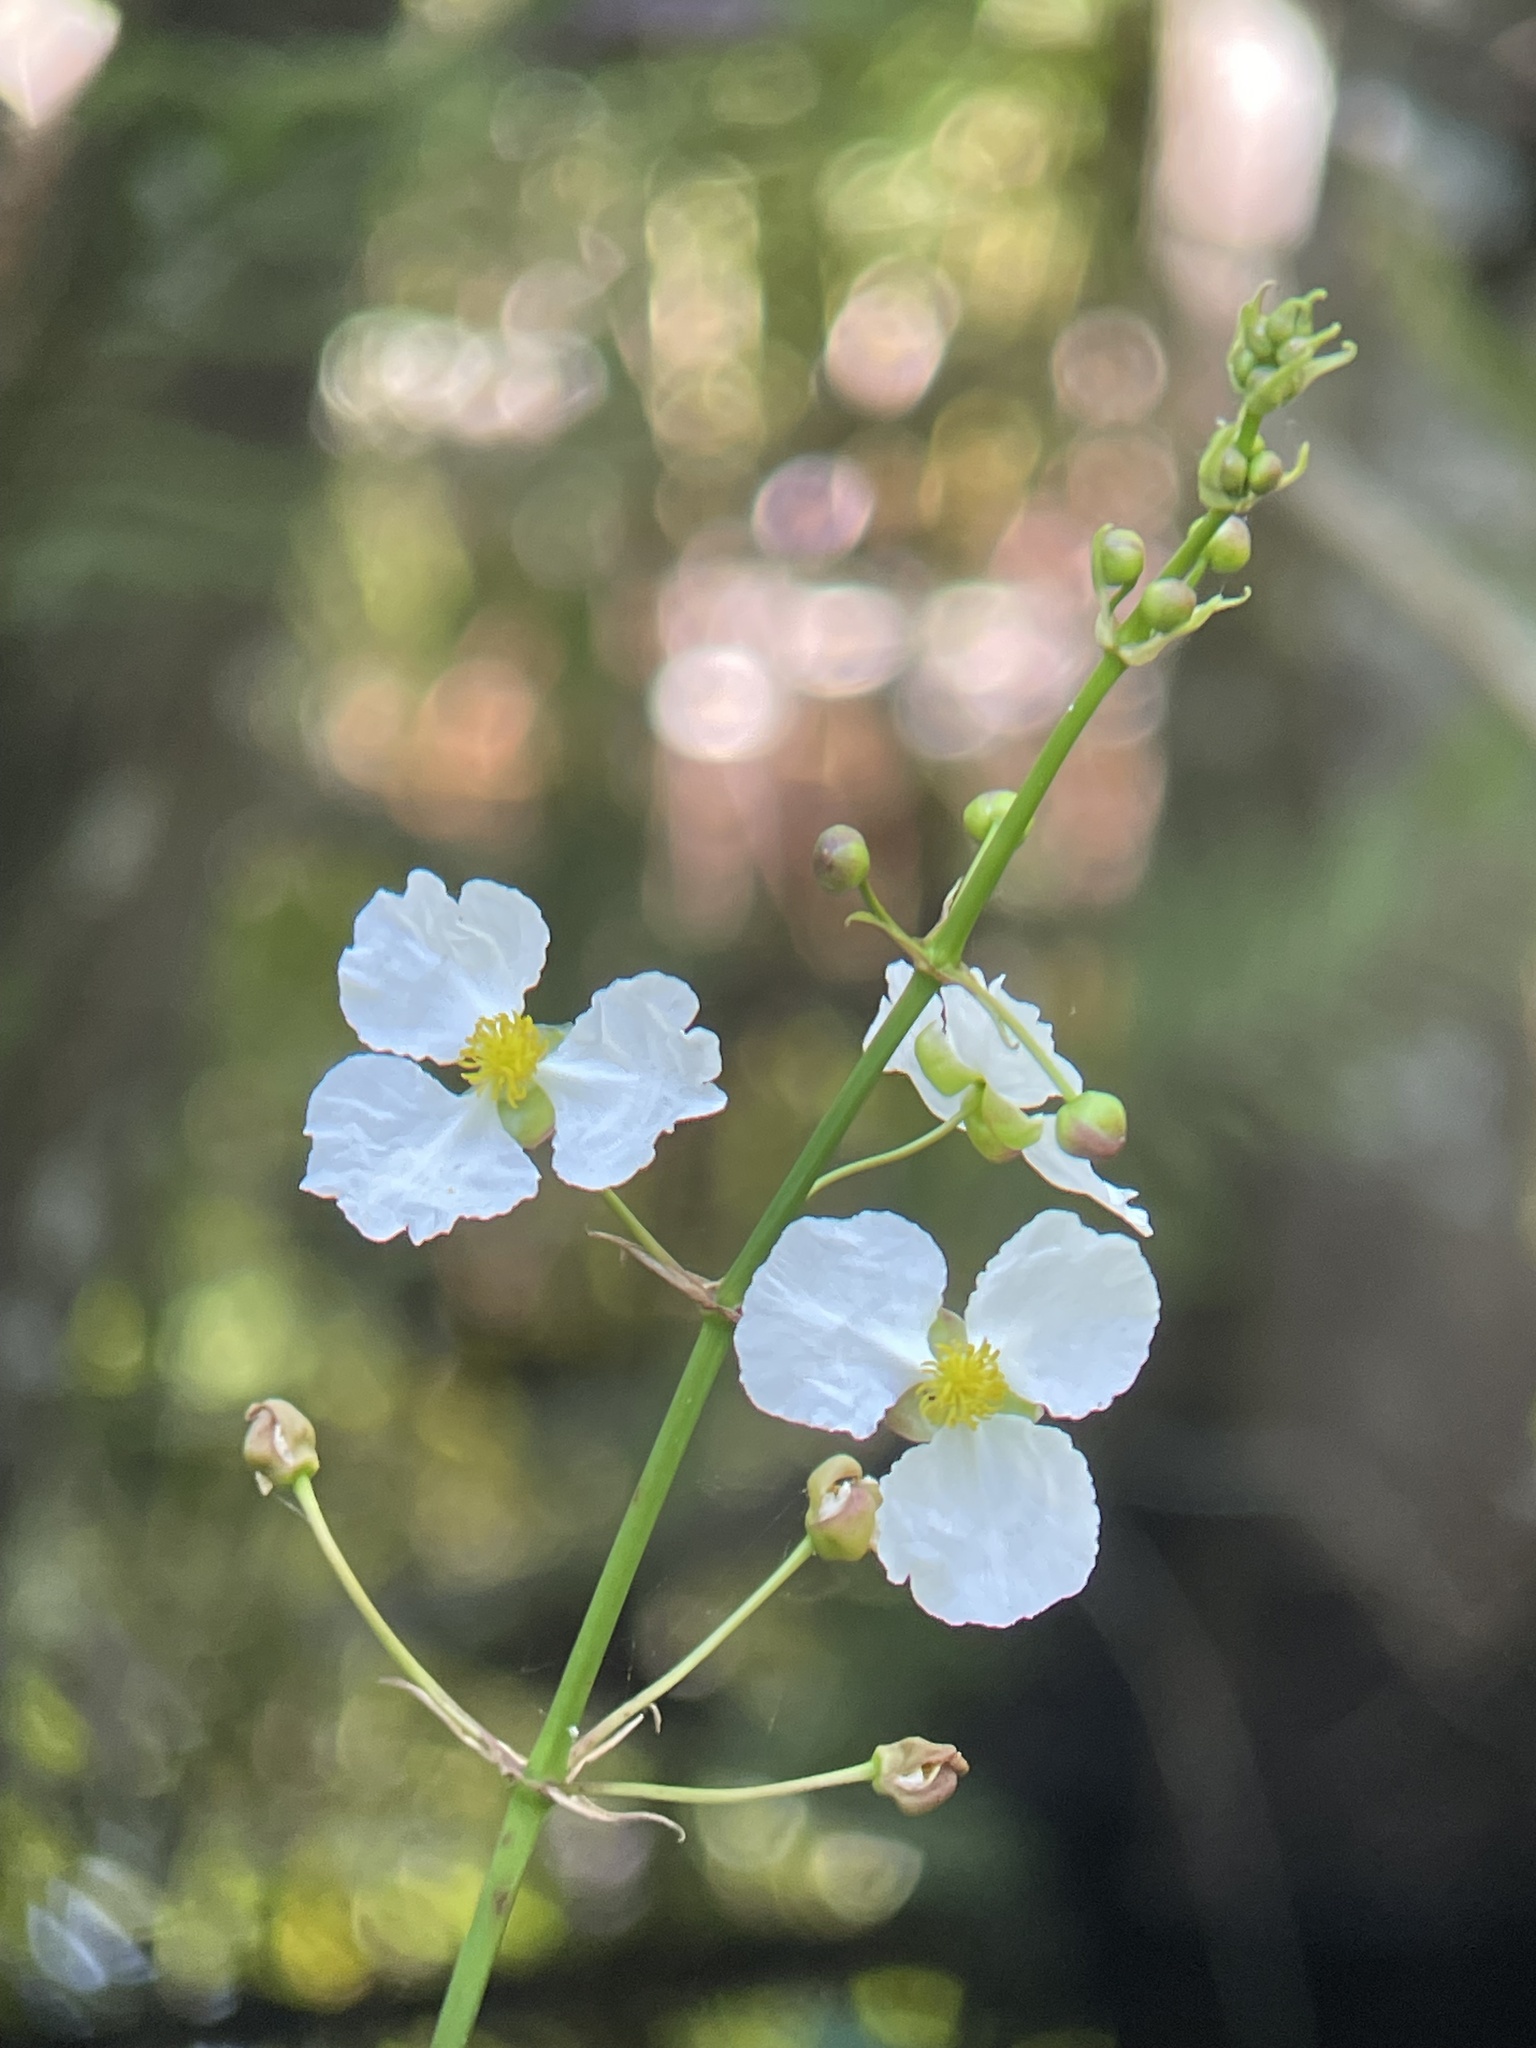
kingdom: Plantae
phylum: Tracheophyta
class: Liliopsida
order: Alismatales
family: Alismataceae
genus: Sagittaria
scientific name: Sagittaria lancifolia
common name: Lance-leaf arrowhead
